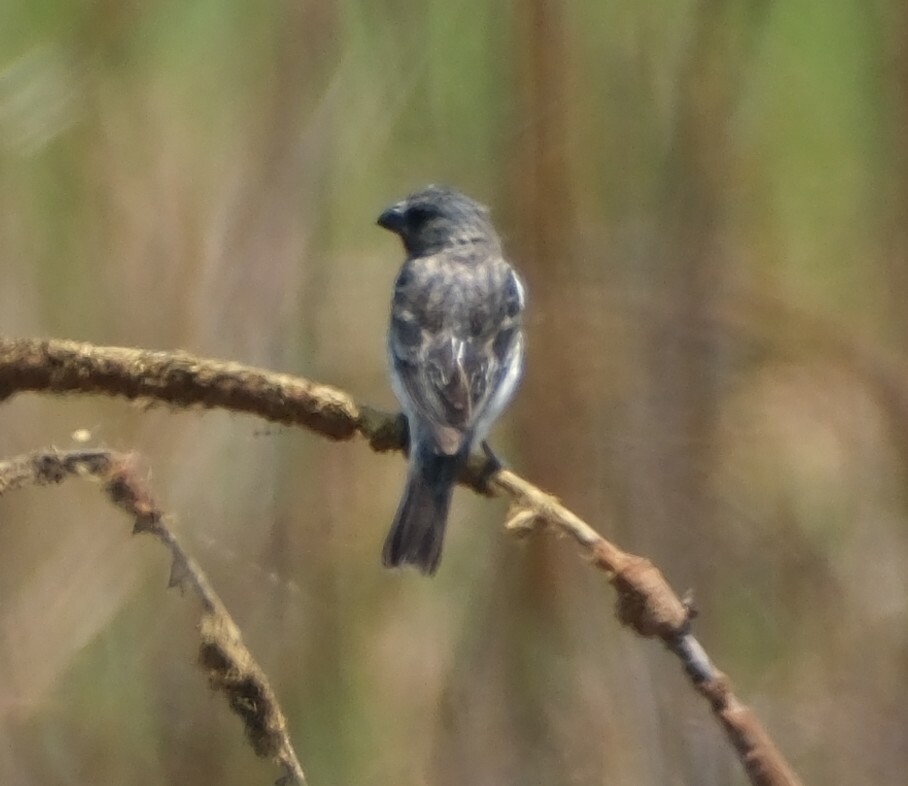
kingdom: Animalia
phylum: Chordata
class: Aves
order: Passeriformes
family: Thraupidae
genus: Sporophila
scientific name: Sporophila telasco
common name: Chestnut-throated seedeater
